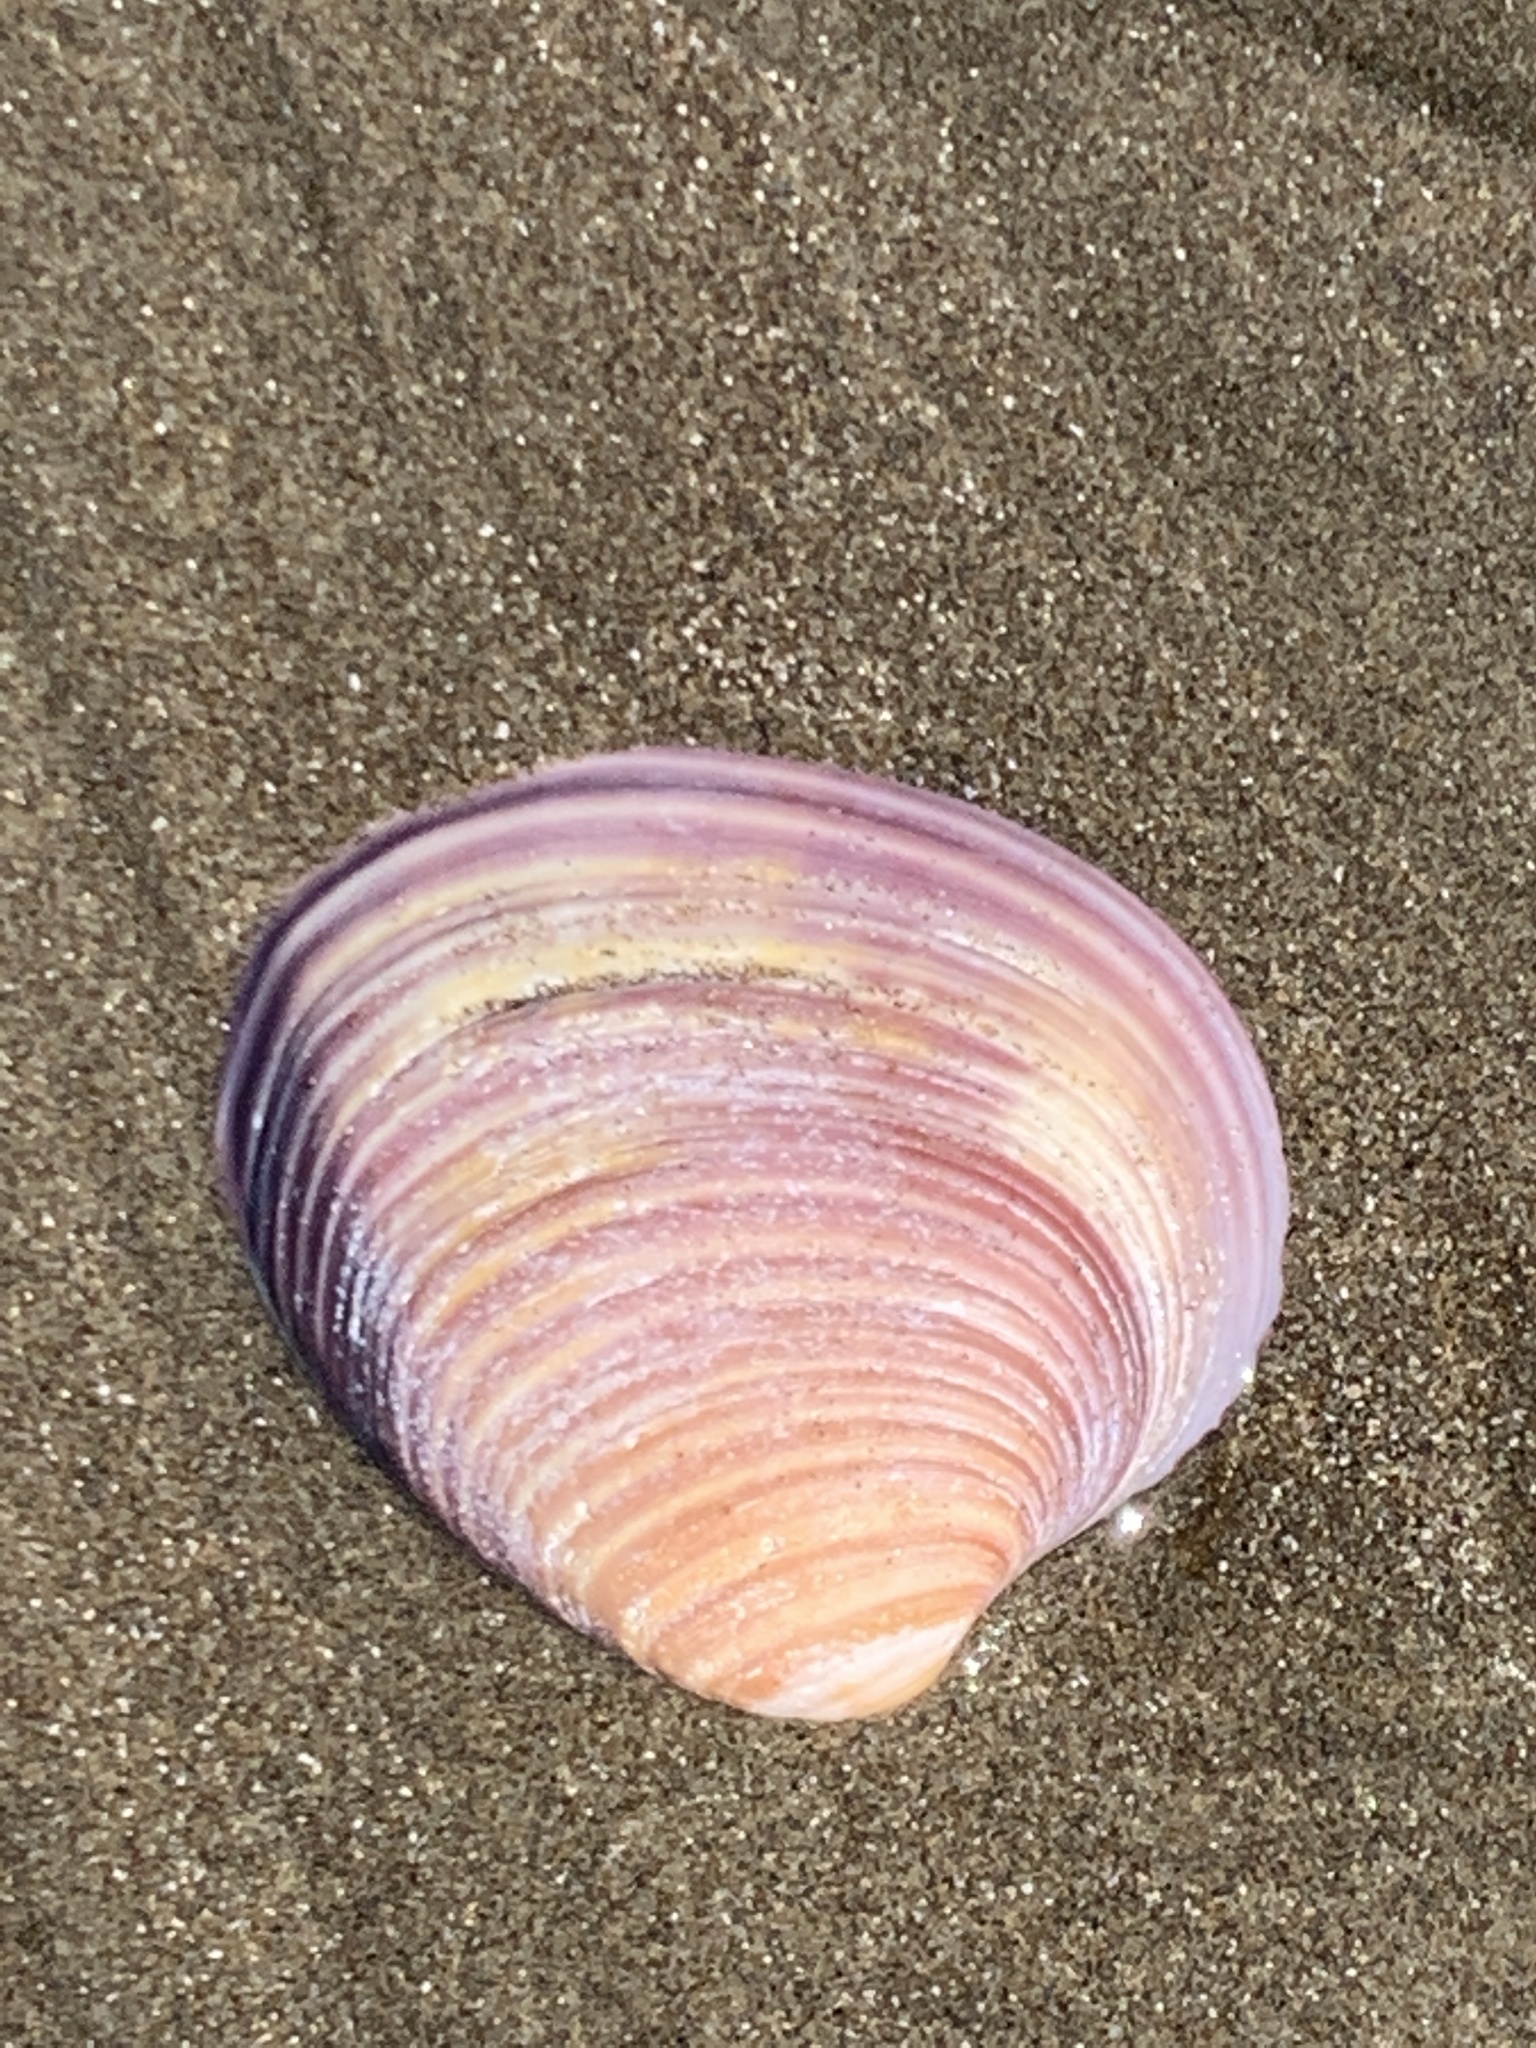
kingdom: Animalia
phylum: Mollusca
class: Bivalvia
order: Venerida
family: Veneridae
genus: Eucallista
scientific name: Eucallista purpurata
